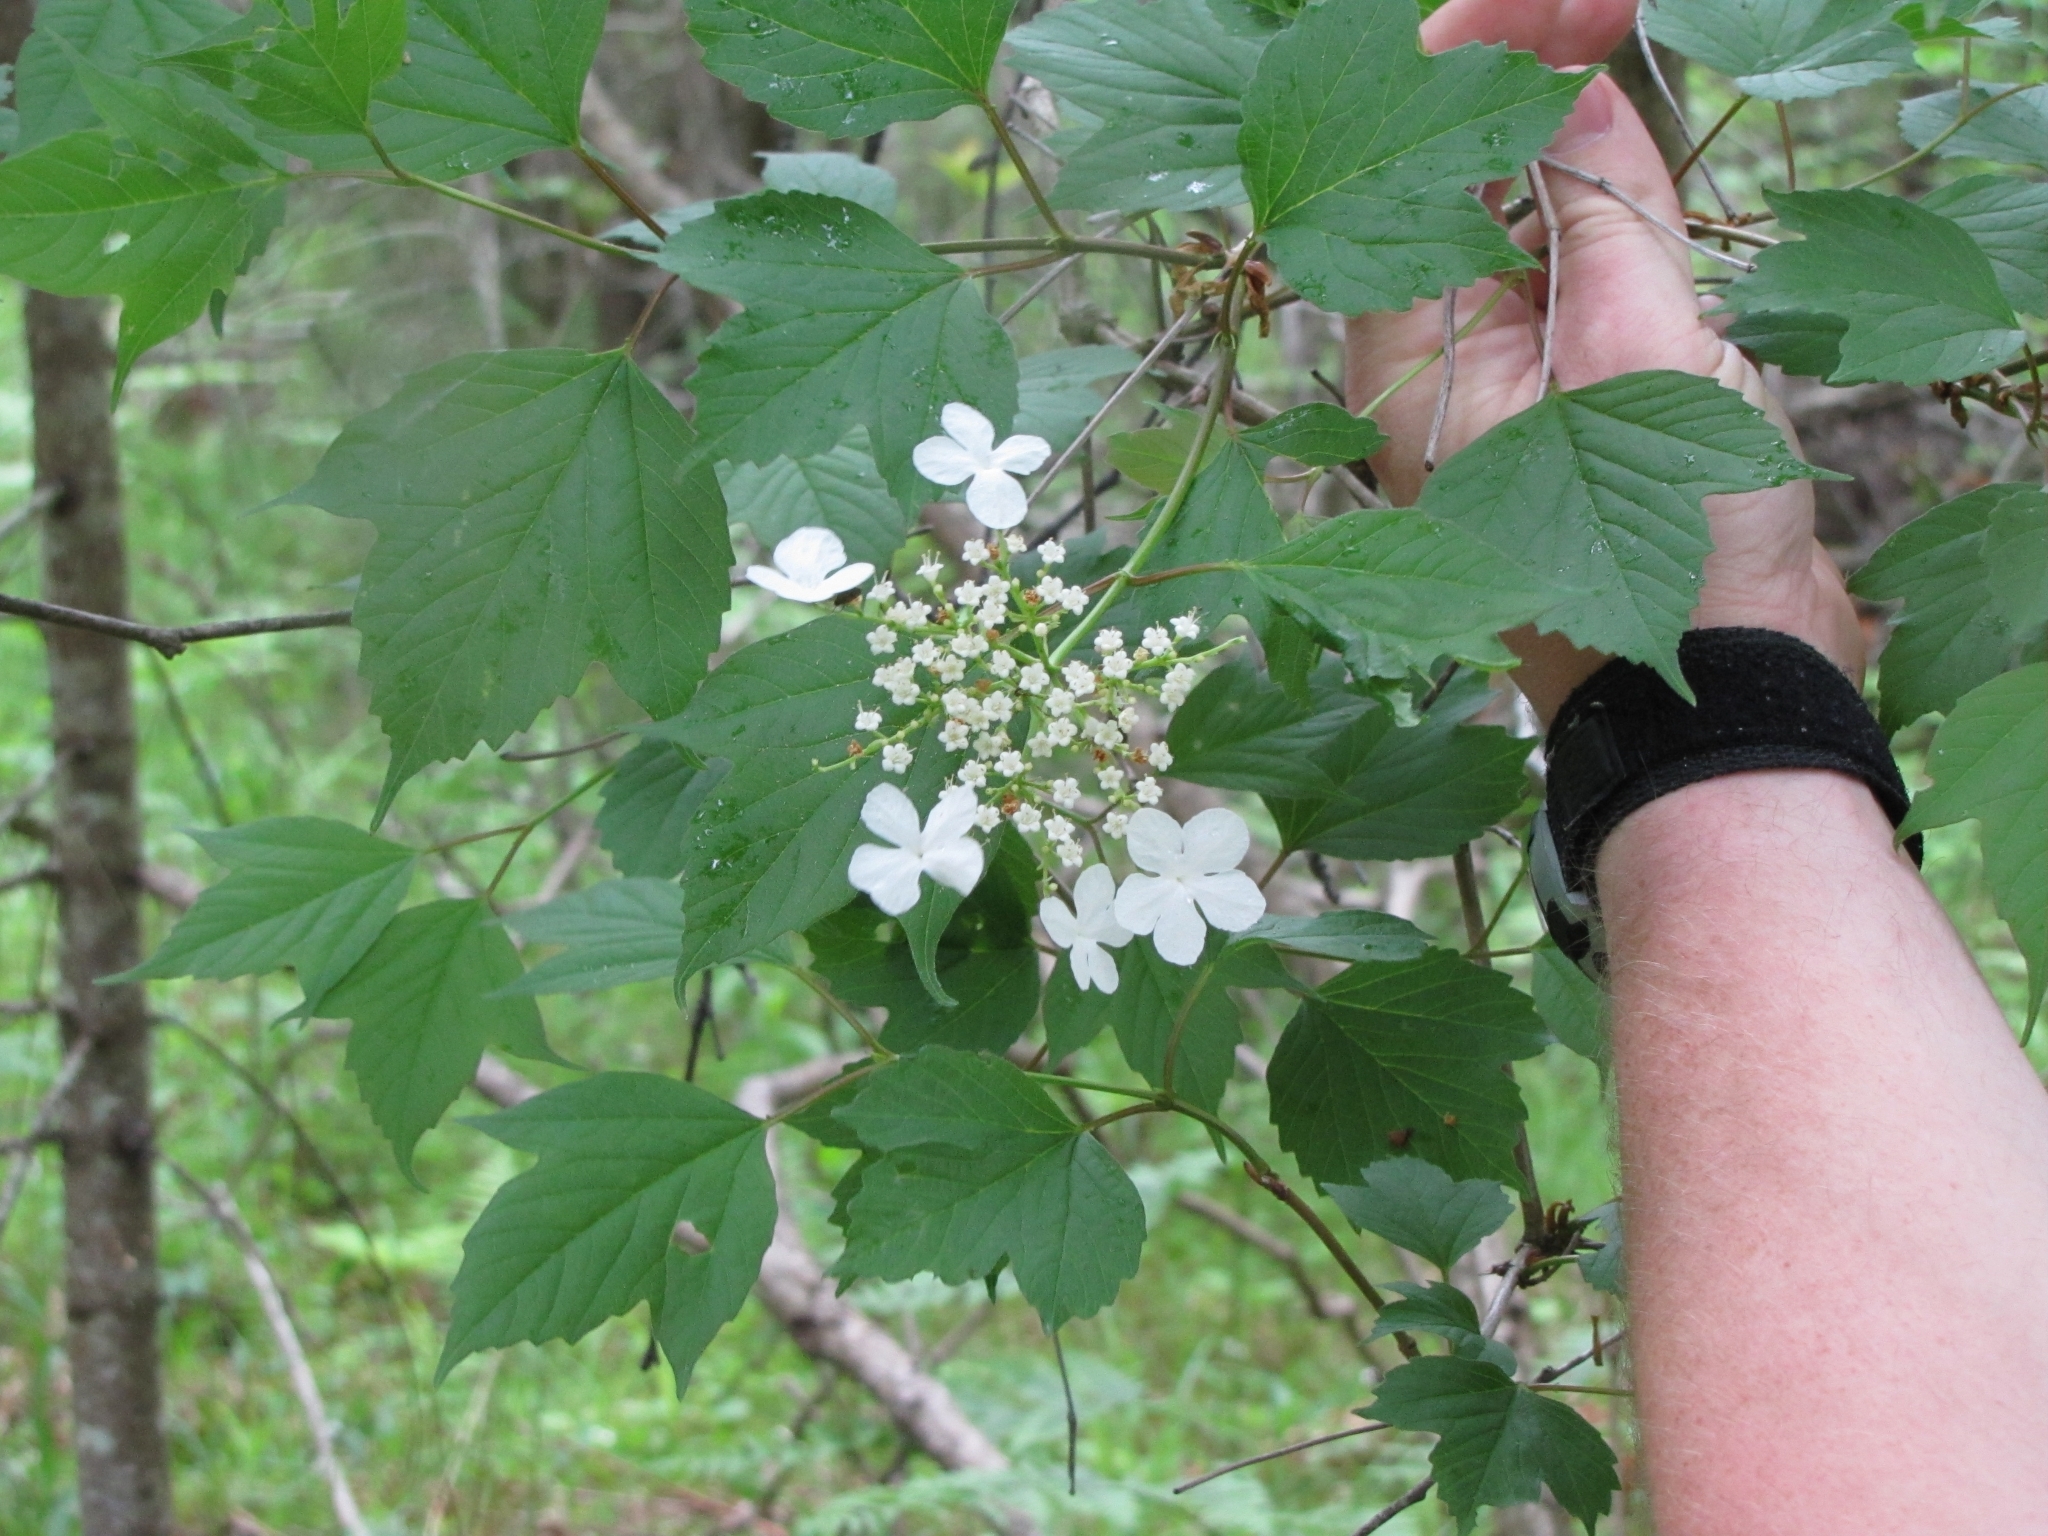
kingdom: Plantae
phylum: Tracheophyta
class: Magnoliopsida
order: Dipsacales
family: Viburnaceae
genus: Viburnum
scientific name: Viburnum trilobum
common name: American cranberrybush
